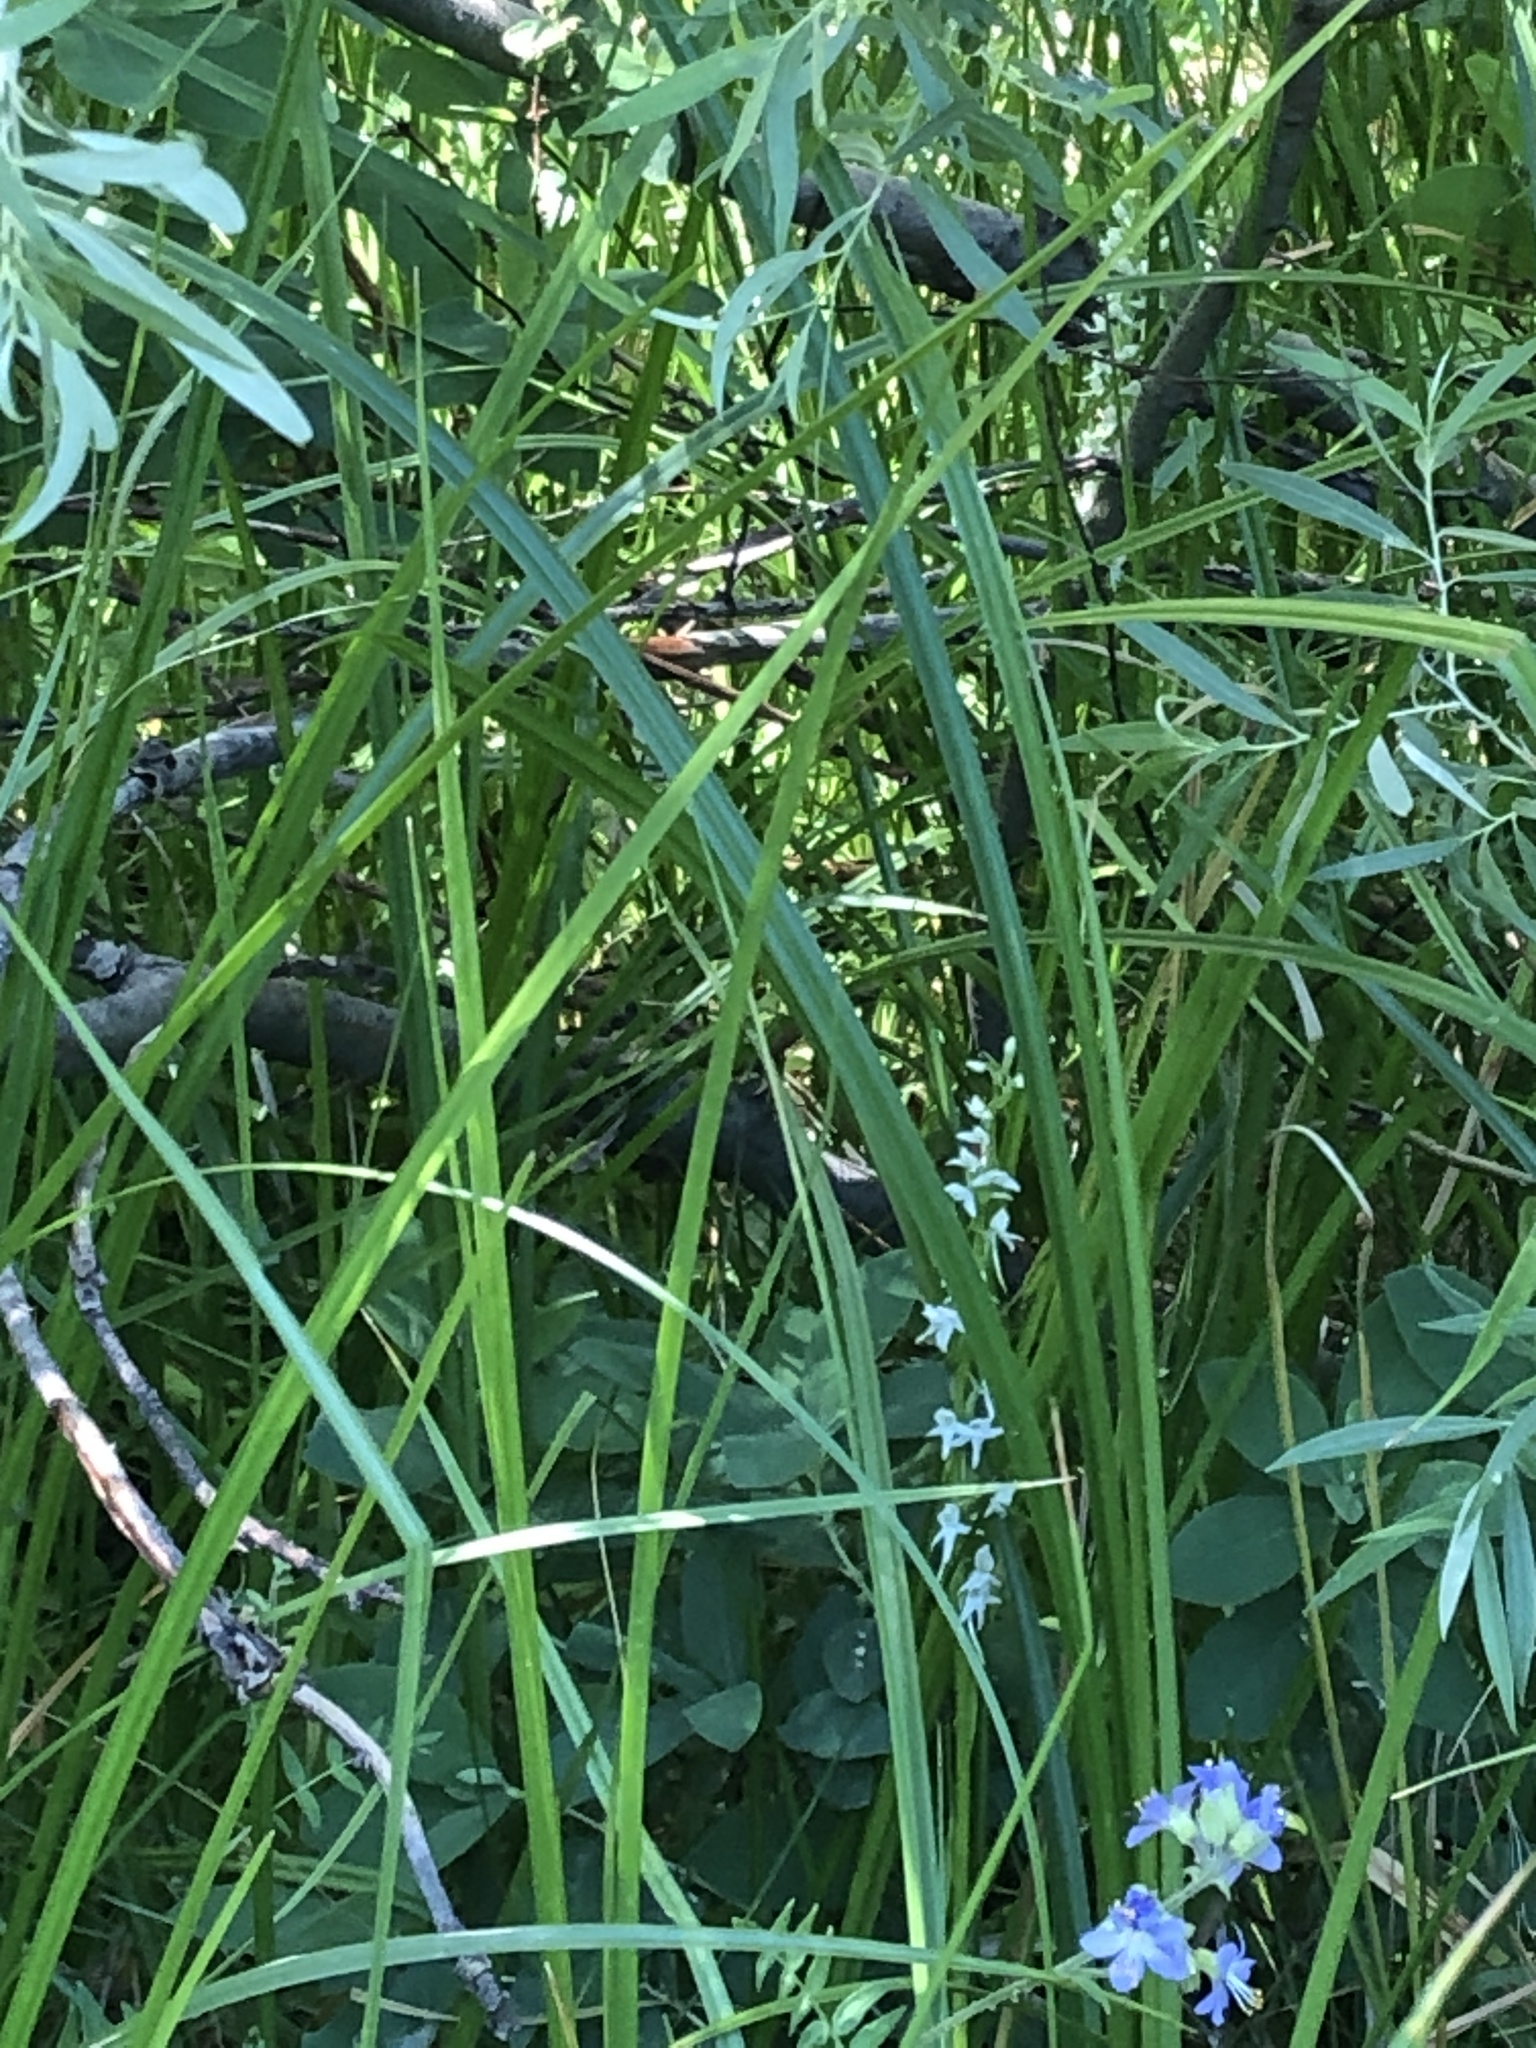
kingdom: Plantae
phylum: Tracheophyta
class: Liliopsida
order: Asparagales
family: Orchidaceae
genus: Platanthera
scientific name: Platanthera dilatata
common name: Bog candles
